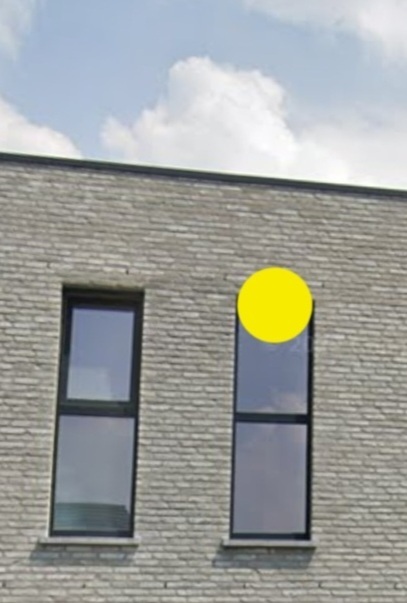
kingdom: Animalia
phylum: Arthropoda
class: Insecta
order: Hymenoptera
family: Vespidae
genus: Vespa
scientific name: Vespa velutina
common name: Asian hornet
